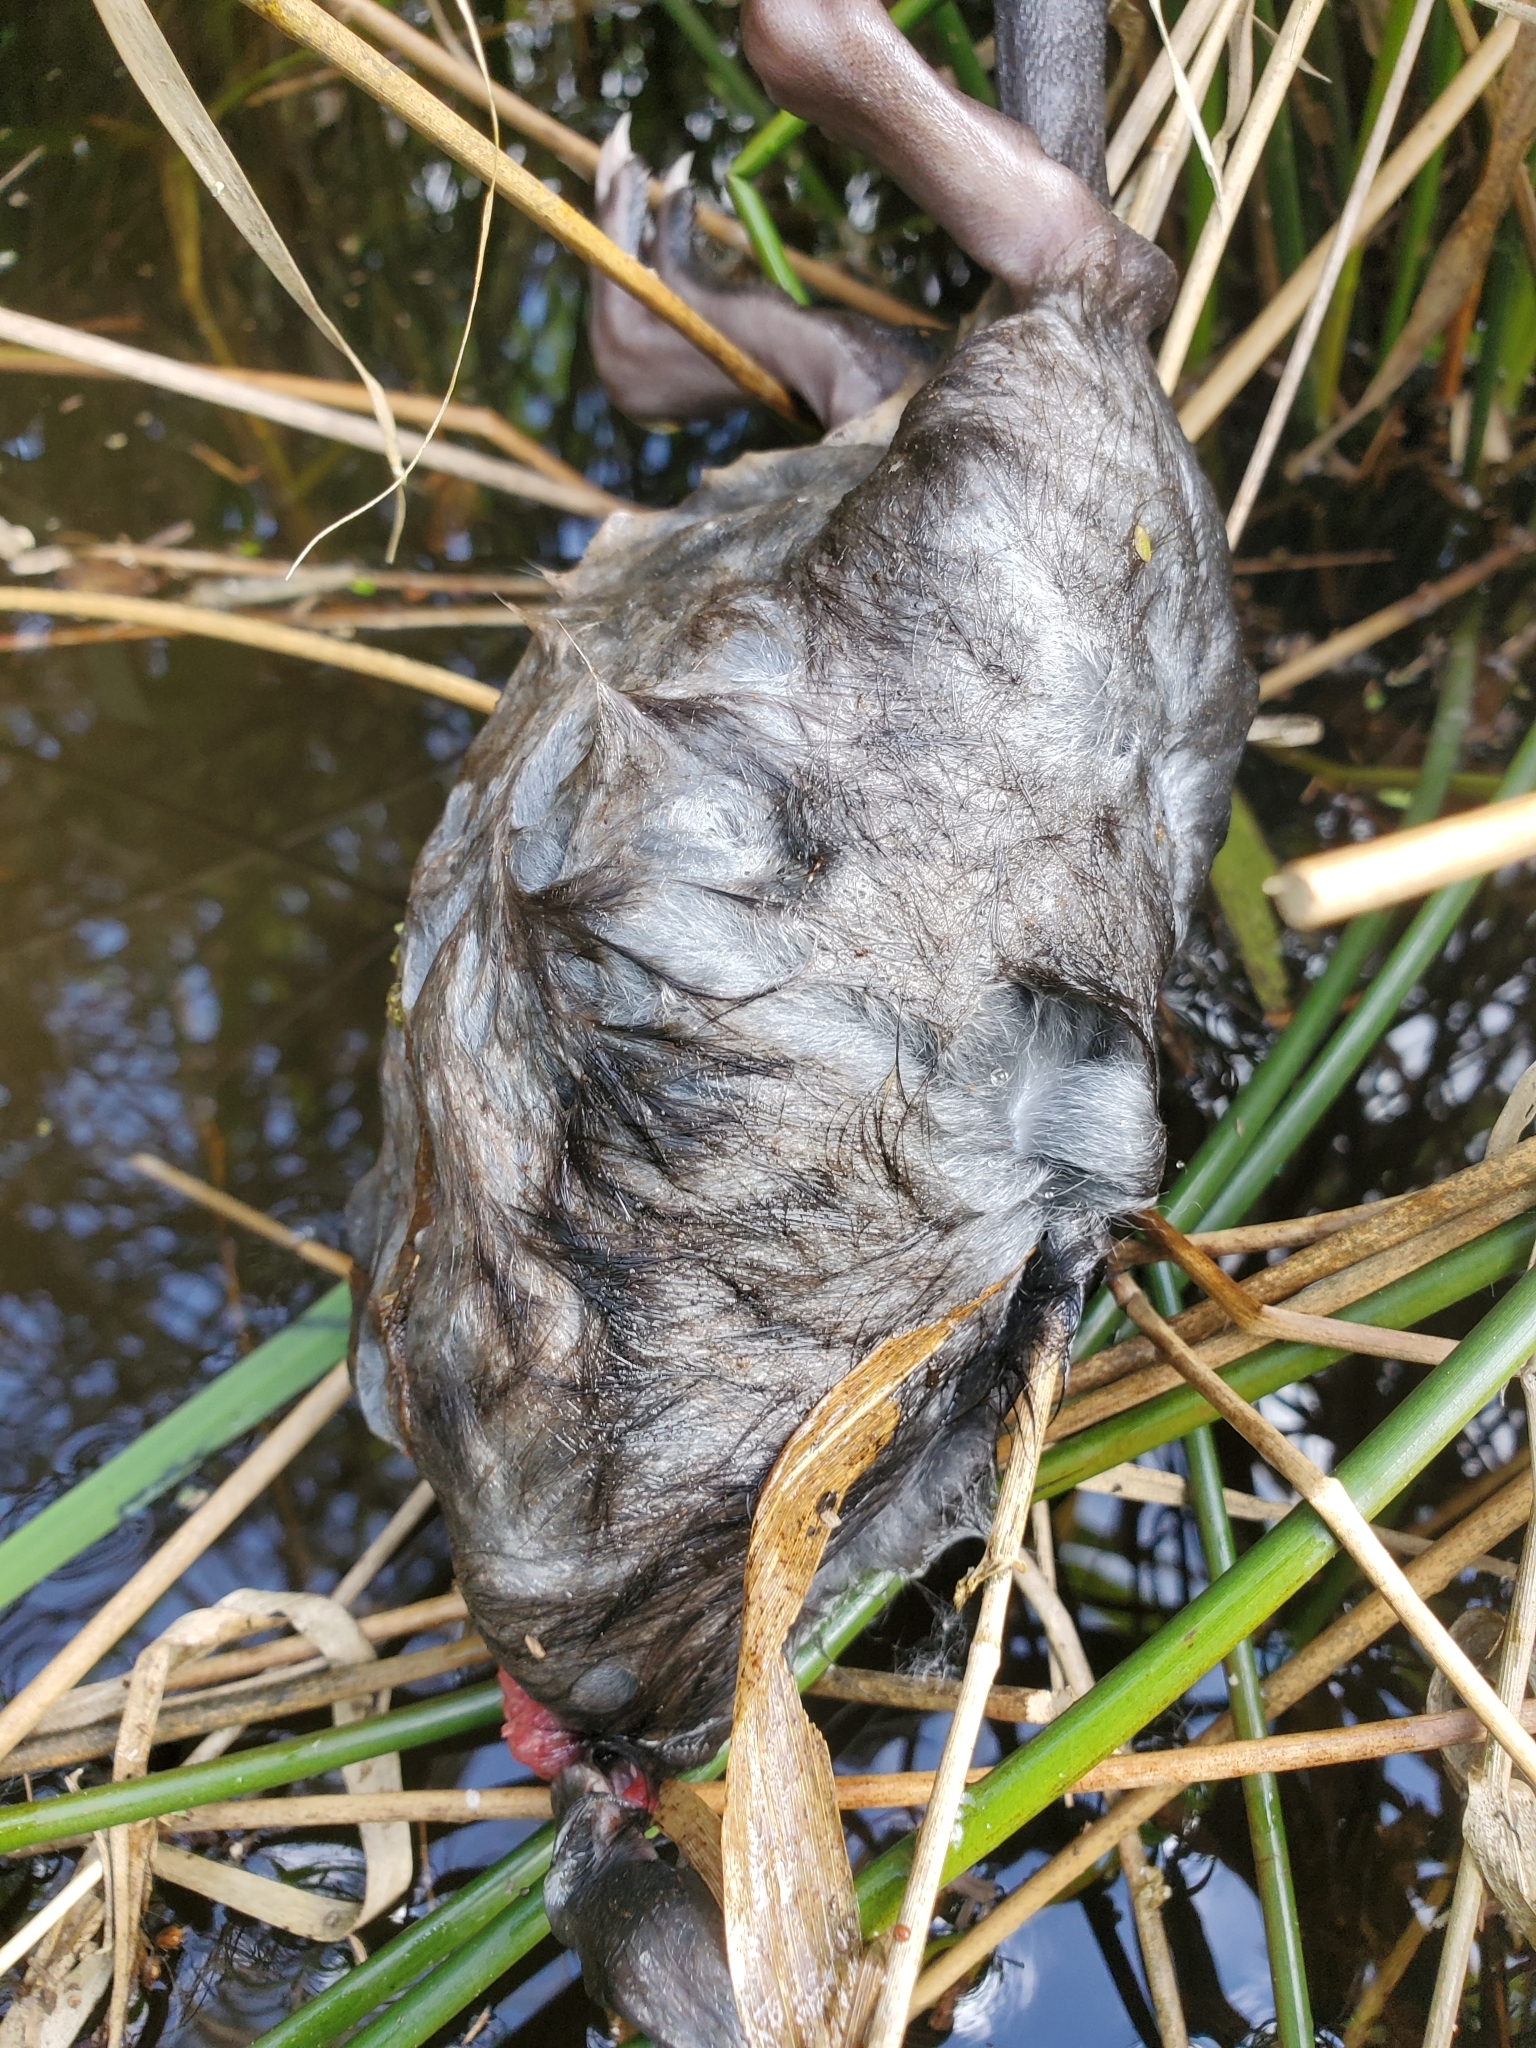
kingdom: Animalia
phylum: Chordata
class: Mammalia
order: Rodentia
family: Cricetidae
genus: Ondatra
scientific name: Ondatra zibethicus
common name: Muskrat
